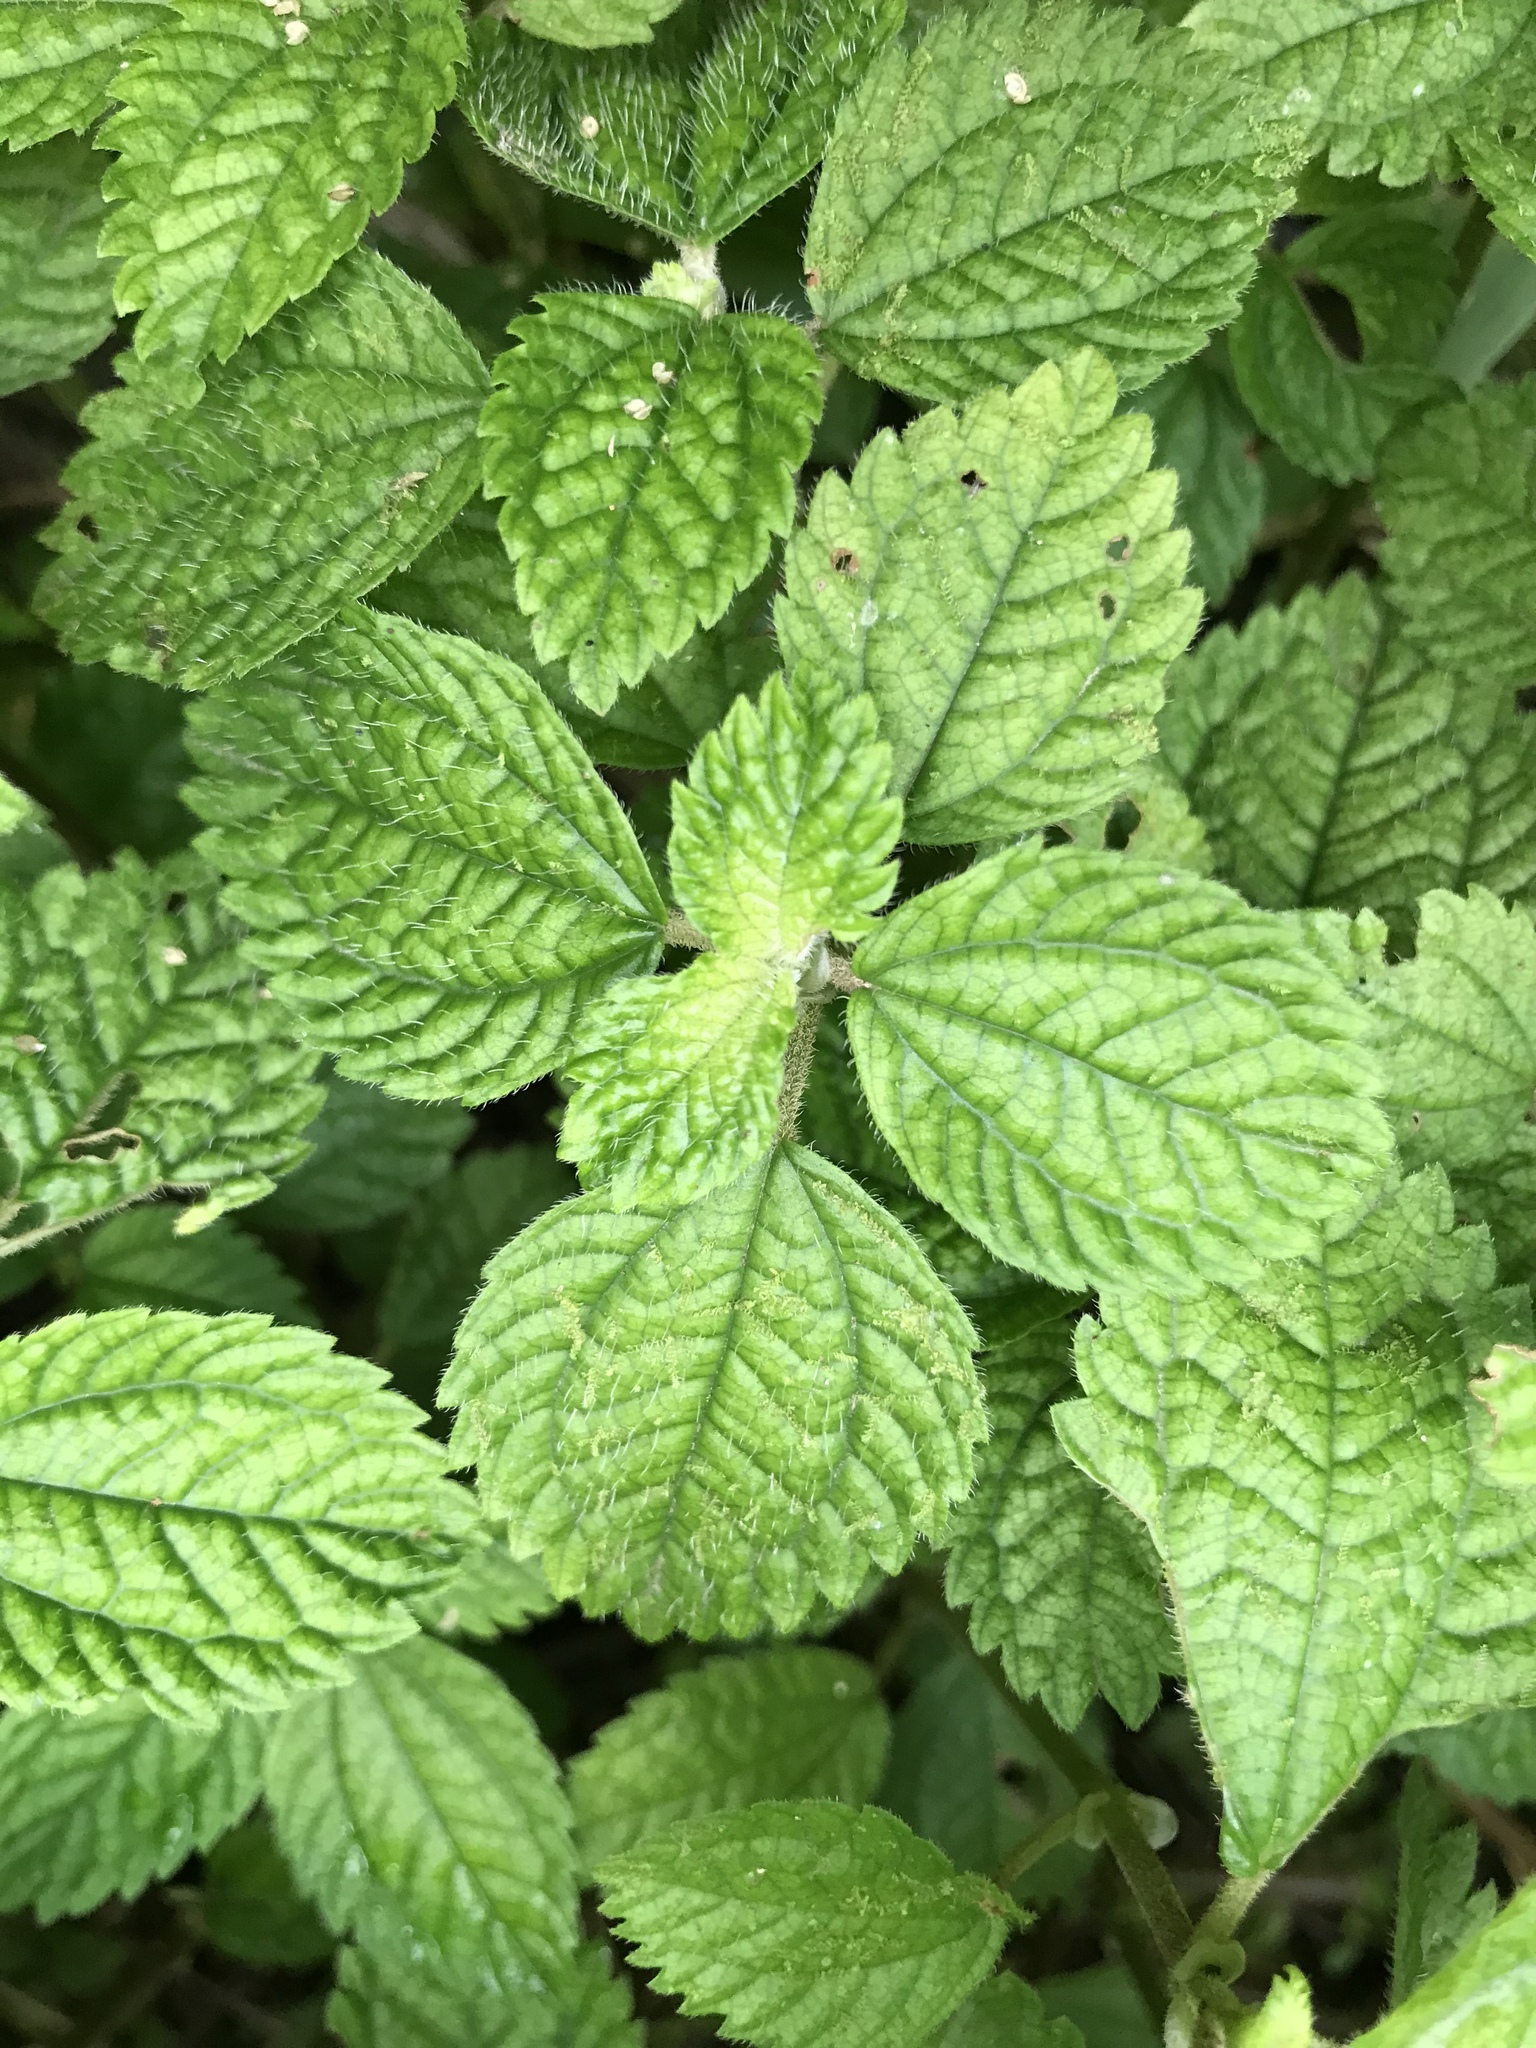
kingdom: Plantae
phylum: Tracheophyta
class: Magnoliopsida
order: Rosales
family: Urticaceae
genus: Pilea
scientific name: Pilea inaequalis
